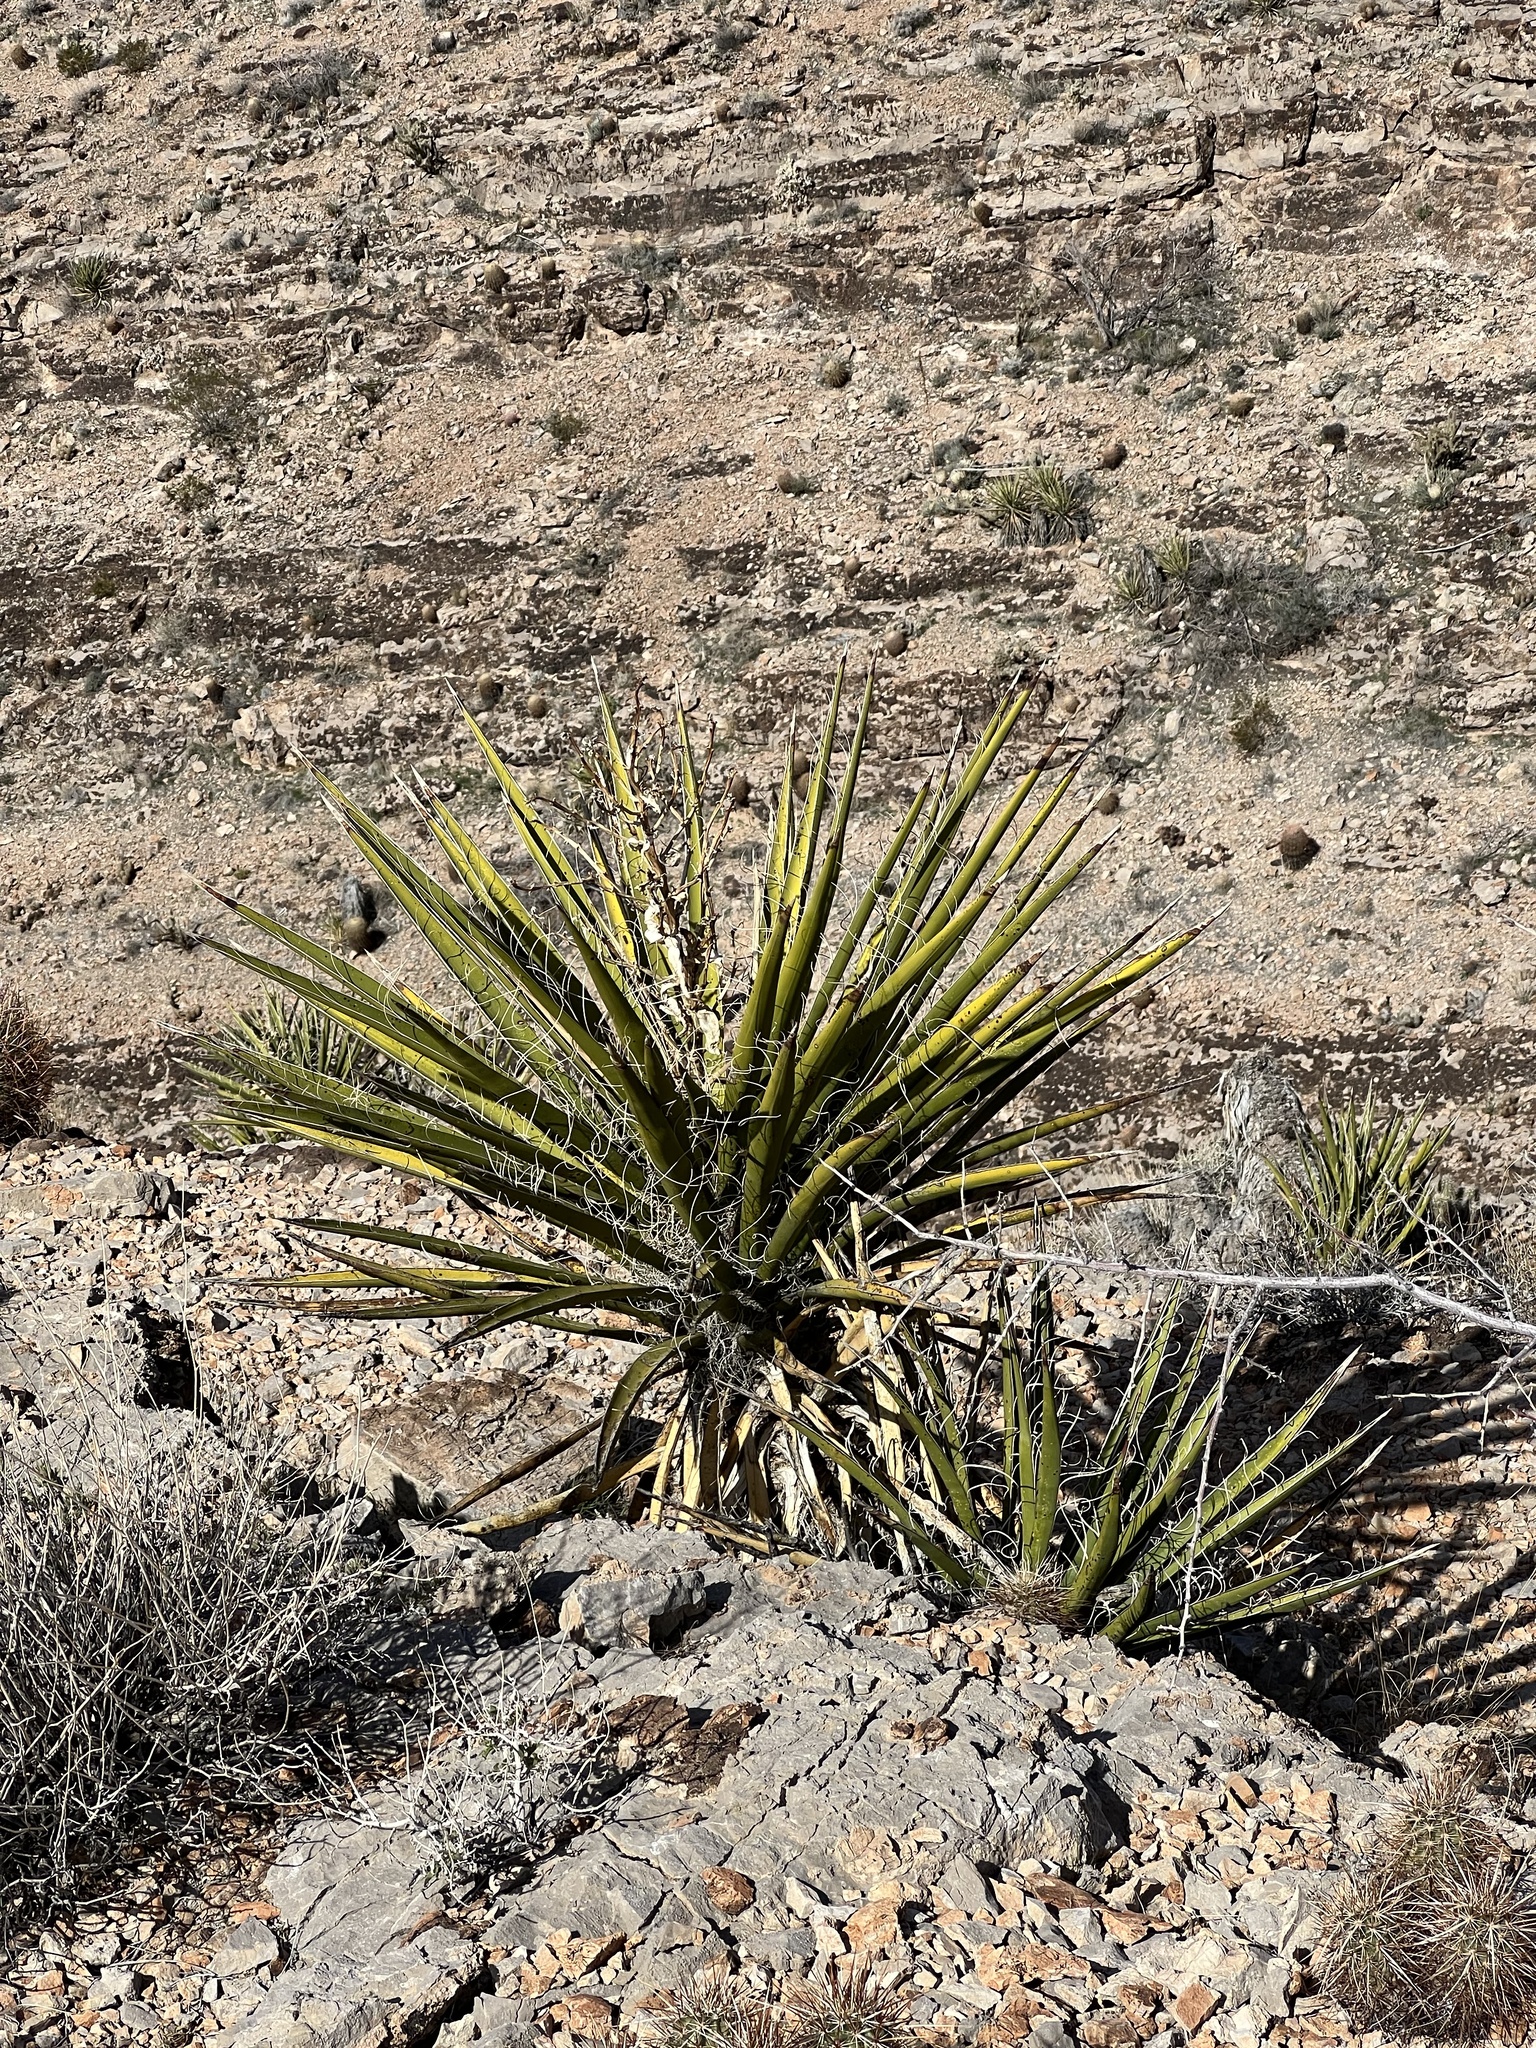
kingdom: Plantae
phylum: Tracheophyta
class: Liliopsida
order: Asparagales
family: Asparagaceae
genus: Yucca
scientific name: Yucca schidigera
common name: Mojave yucca
